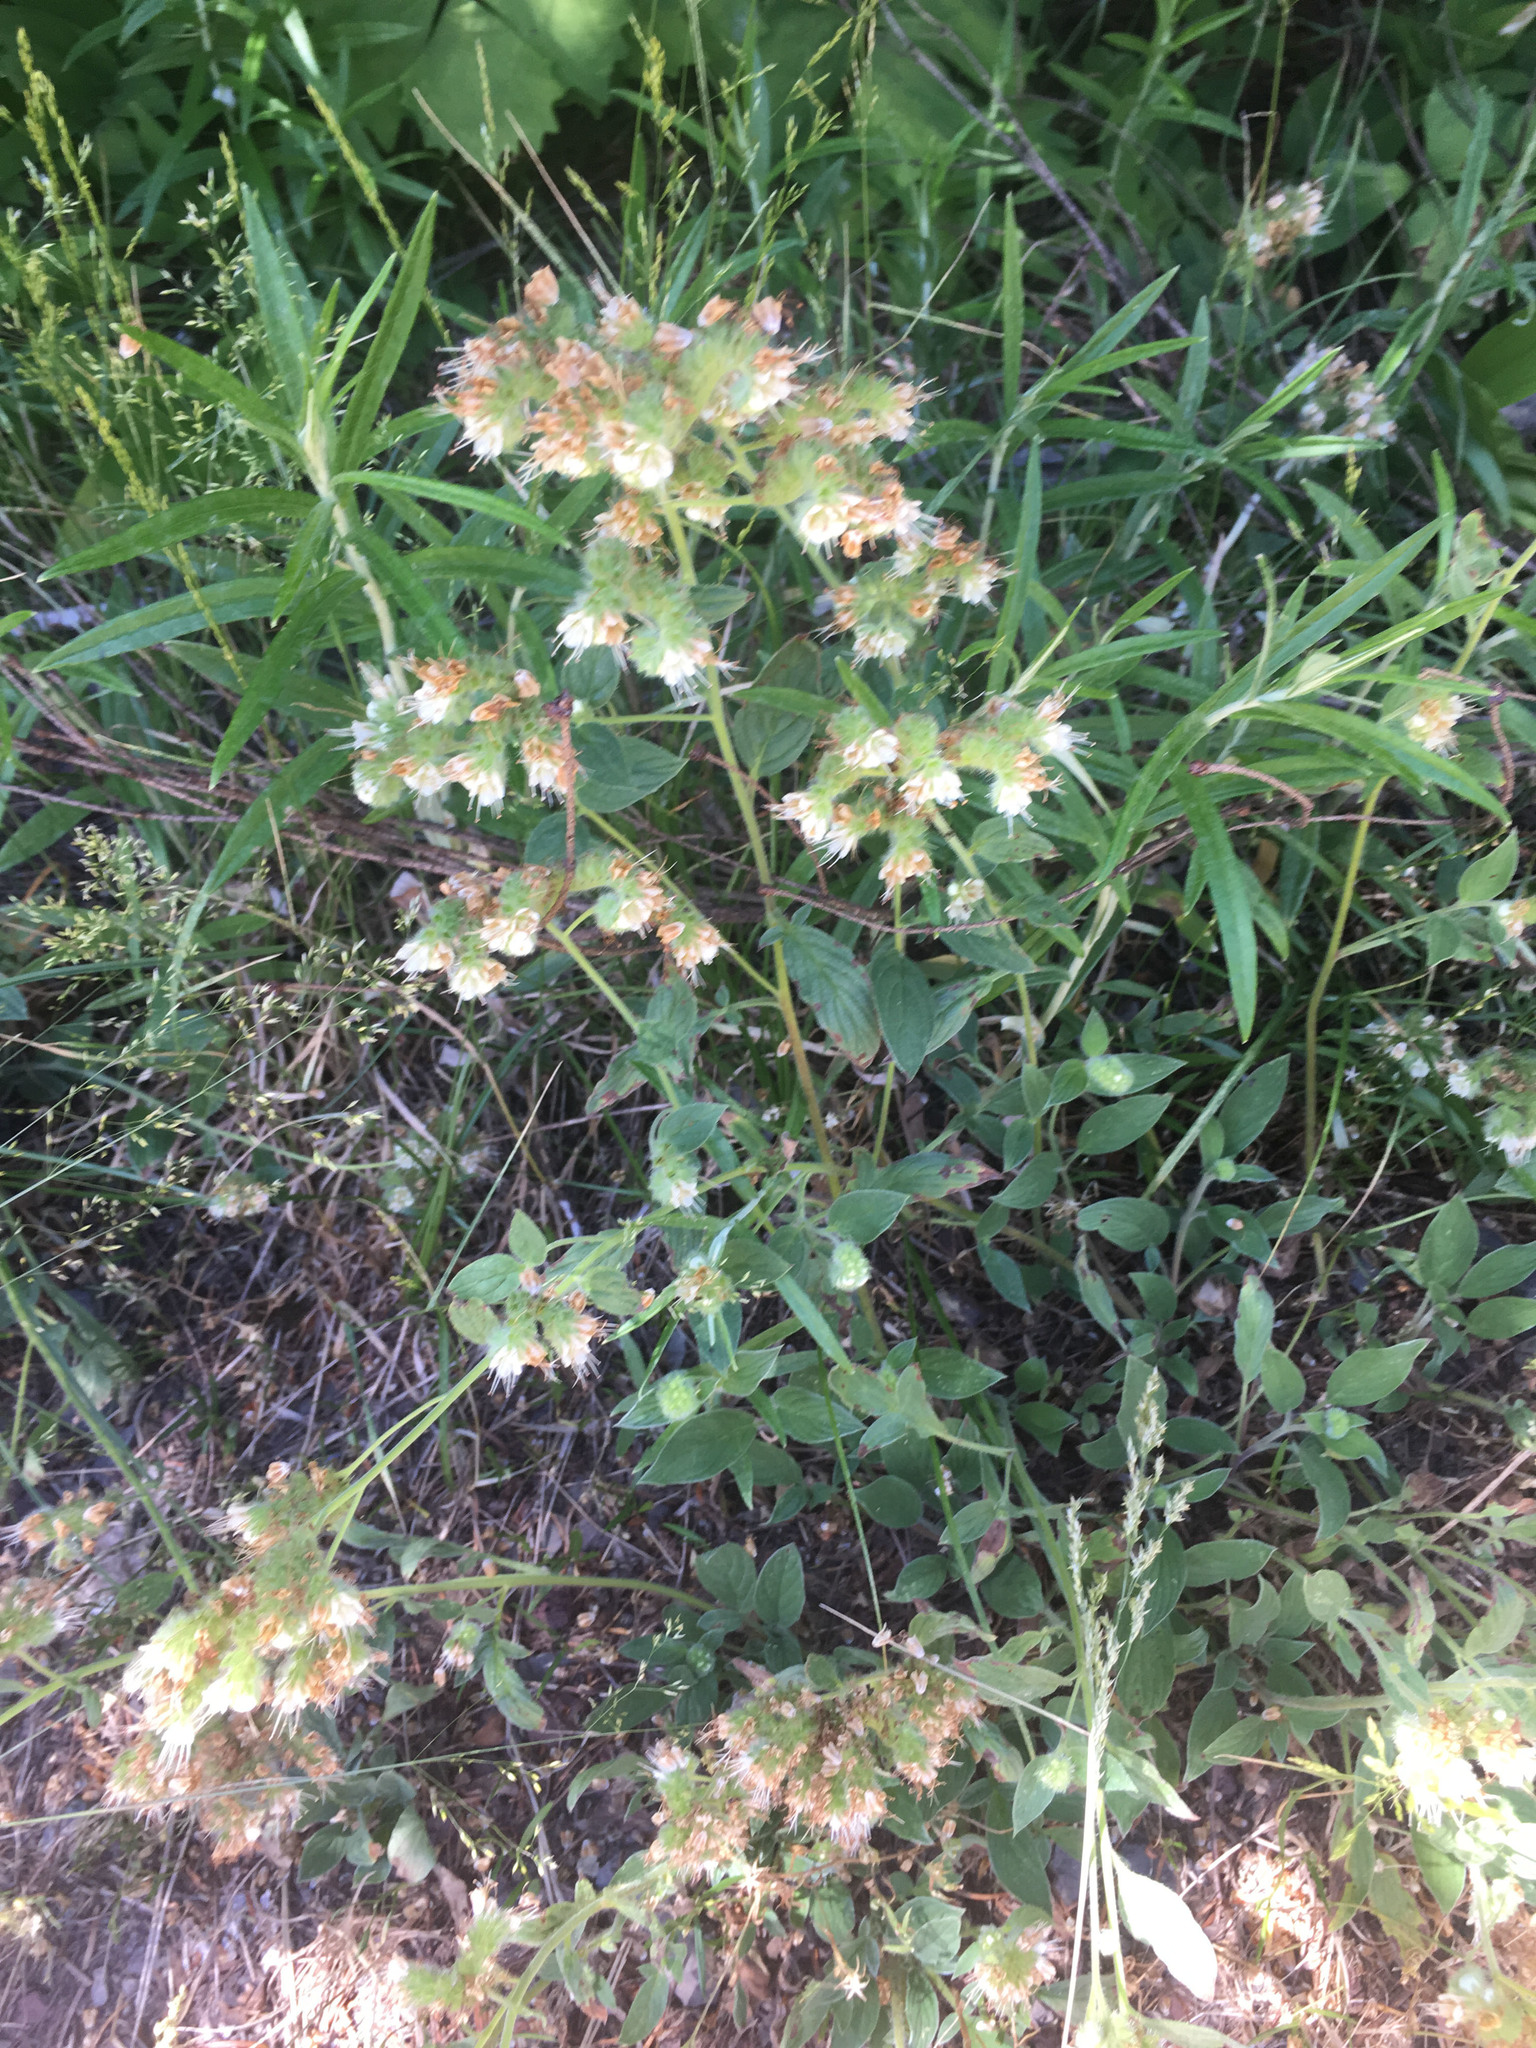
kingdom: Plantae
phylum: Tracheophyta
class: Magnoliopsida
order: Boraginales
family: Hydrophyllaceae
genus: Phacelia
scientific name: Phacelia hastata
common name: Silver-leaved phacelia
